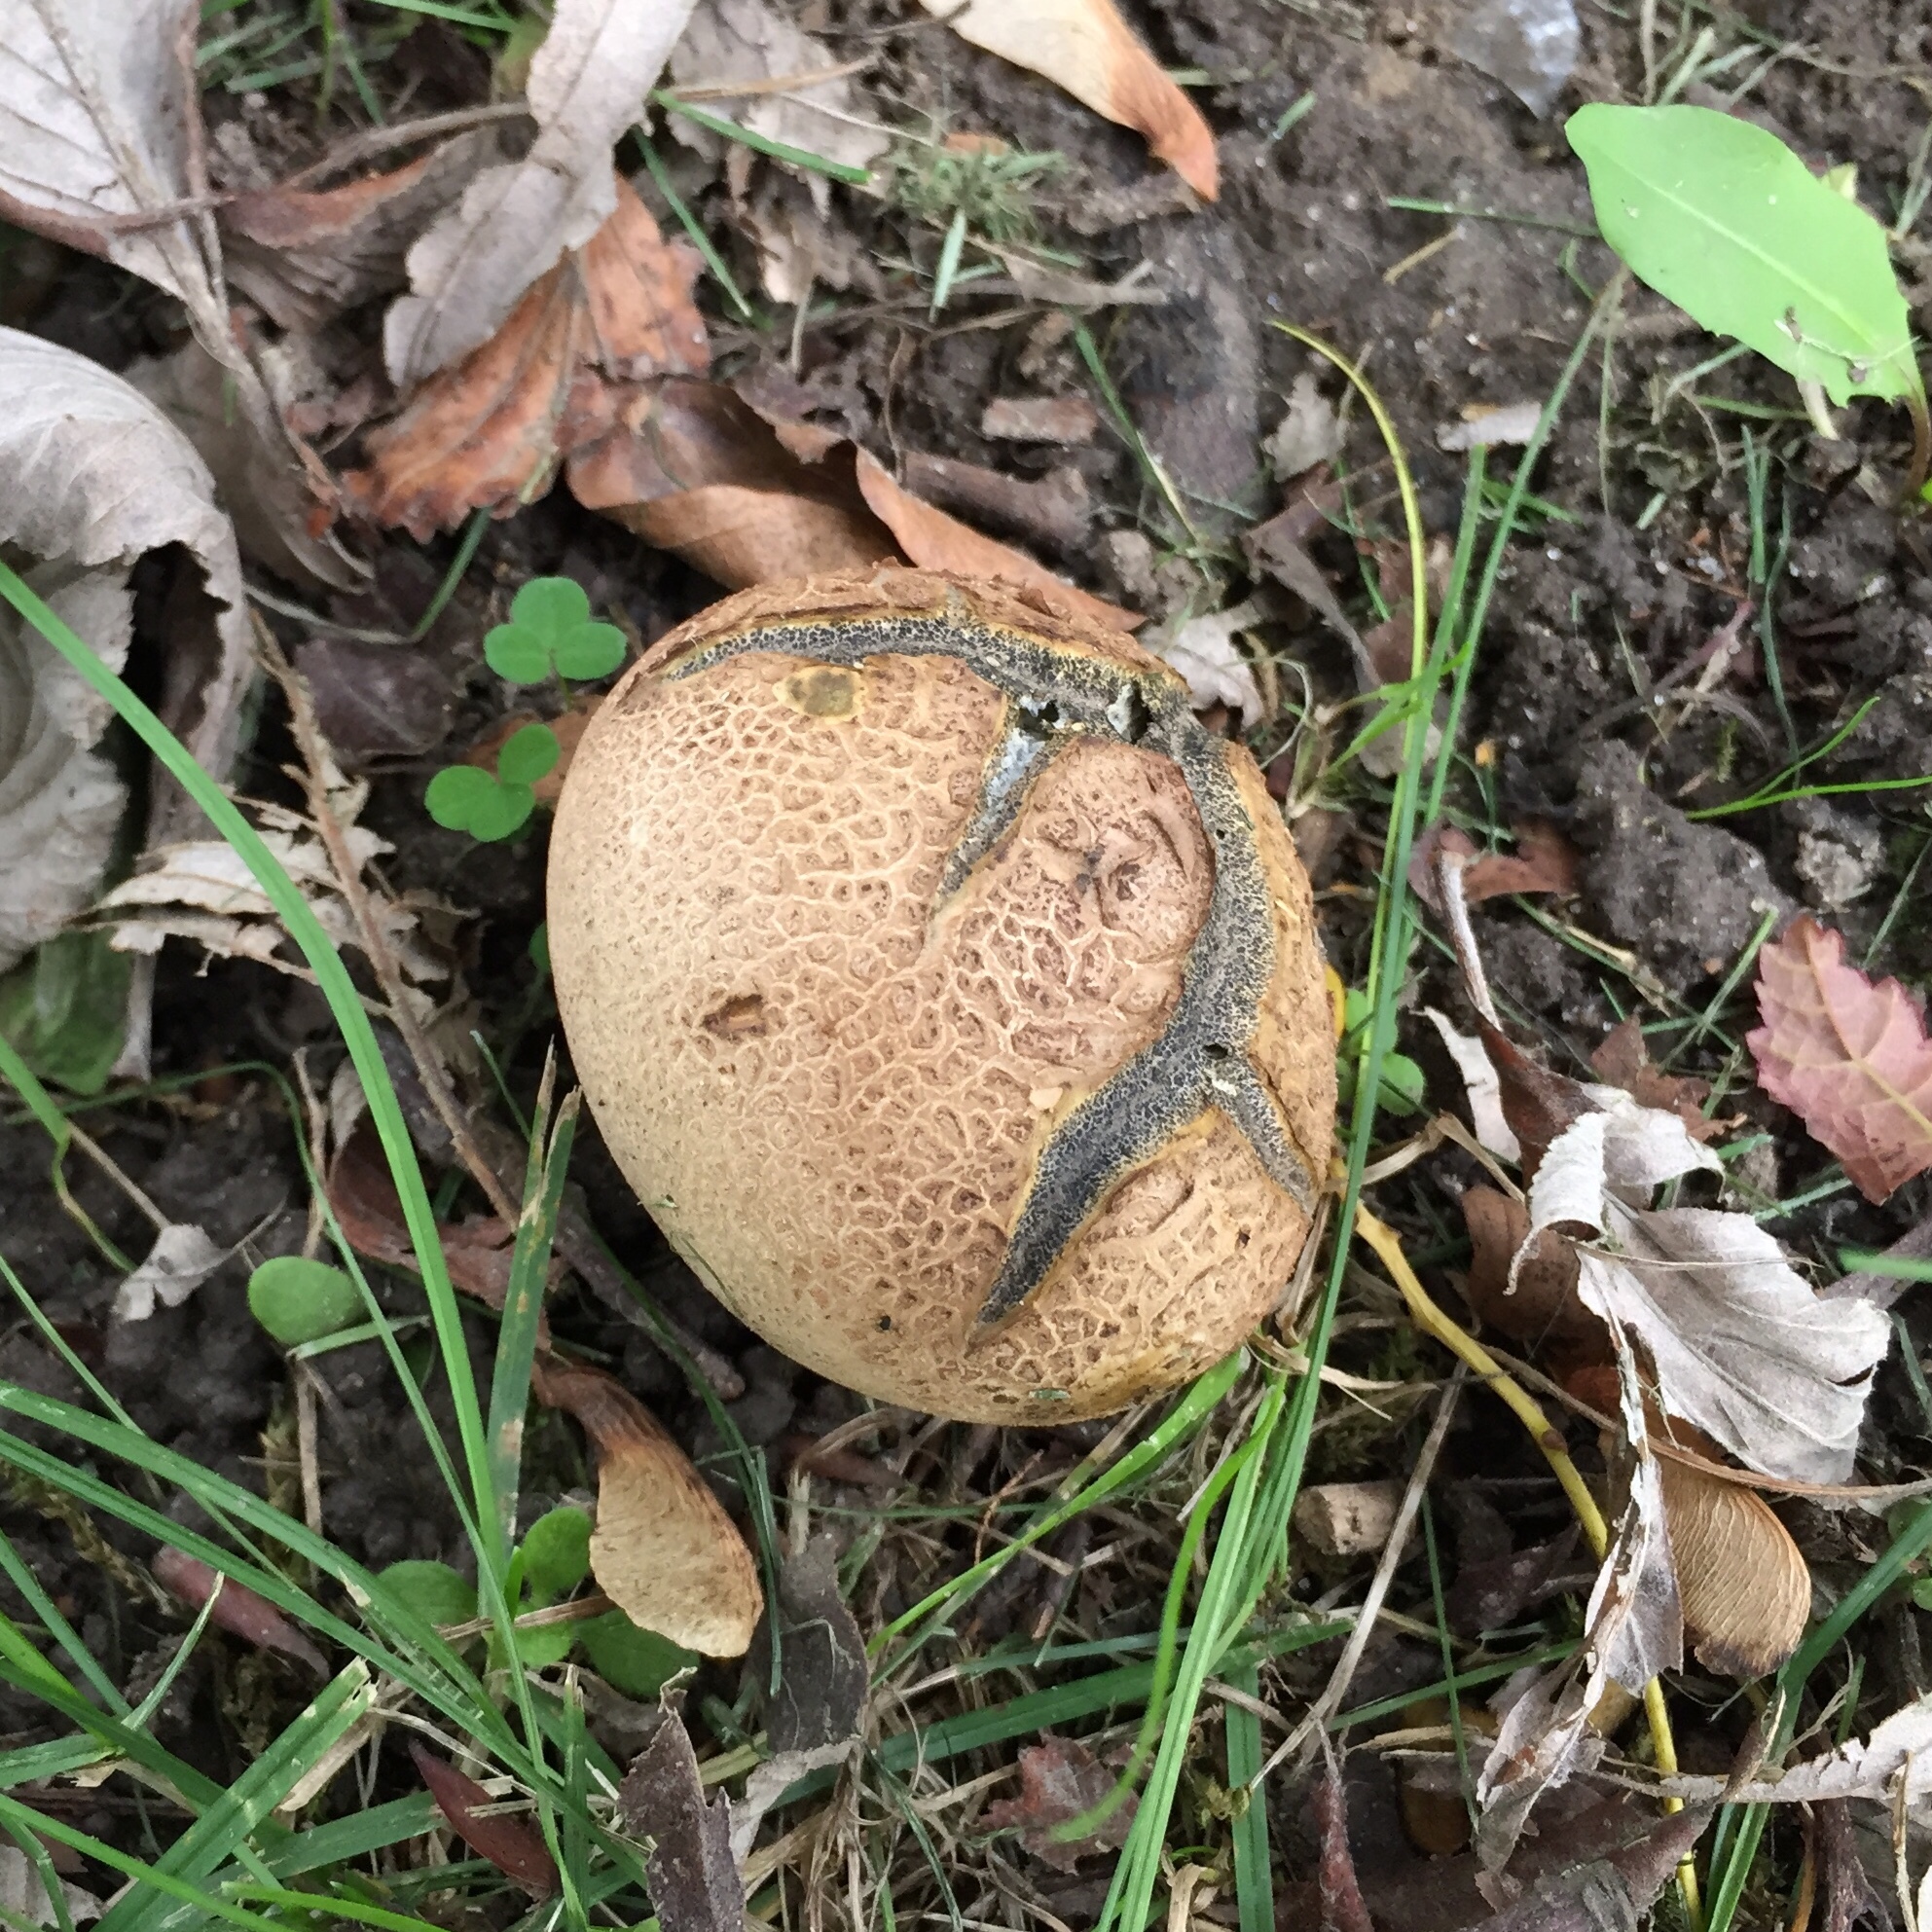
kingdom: Fungi
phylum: Basidiomycota
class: Agaricomycetes
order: Boletales
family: Sclerodermataceae
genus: Scleroderma
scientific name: Scleroderma citrinum
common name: Common earthball
